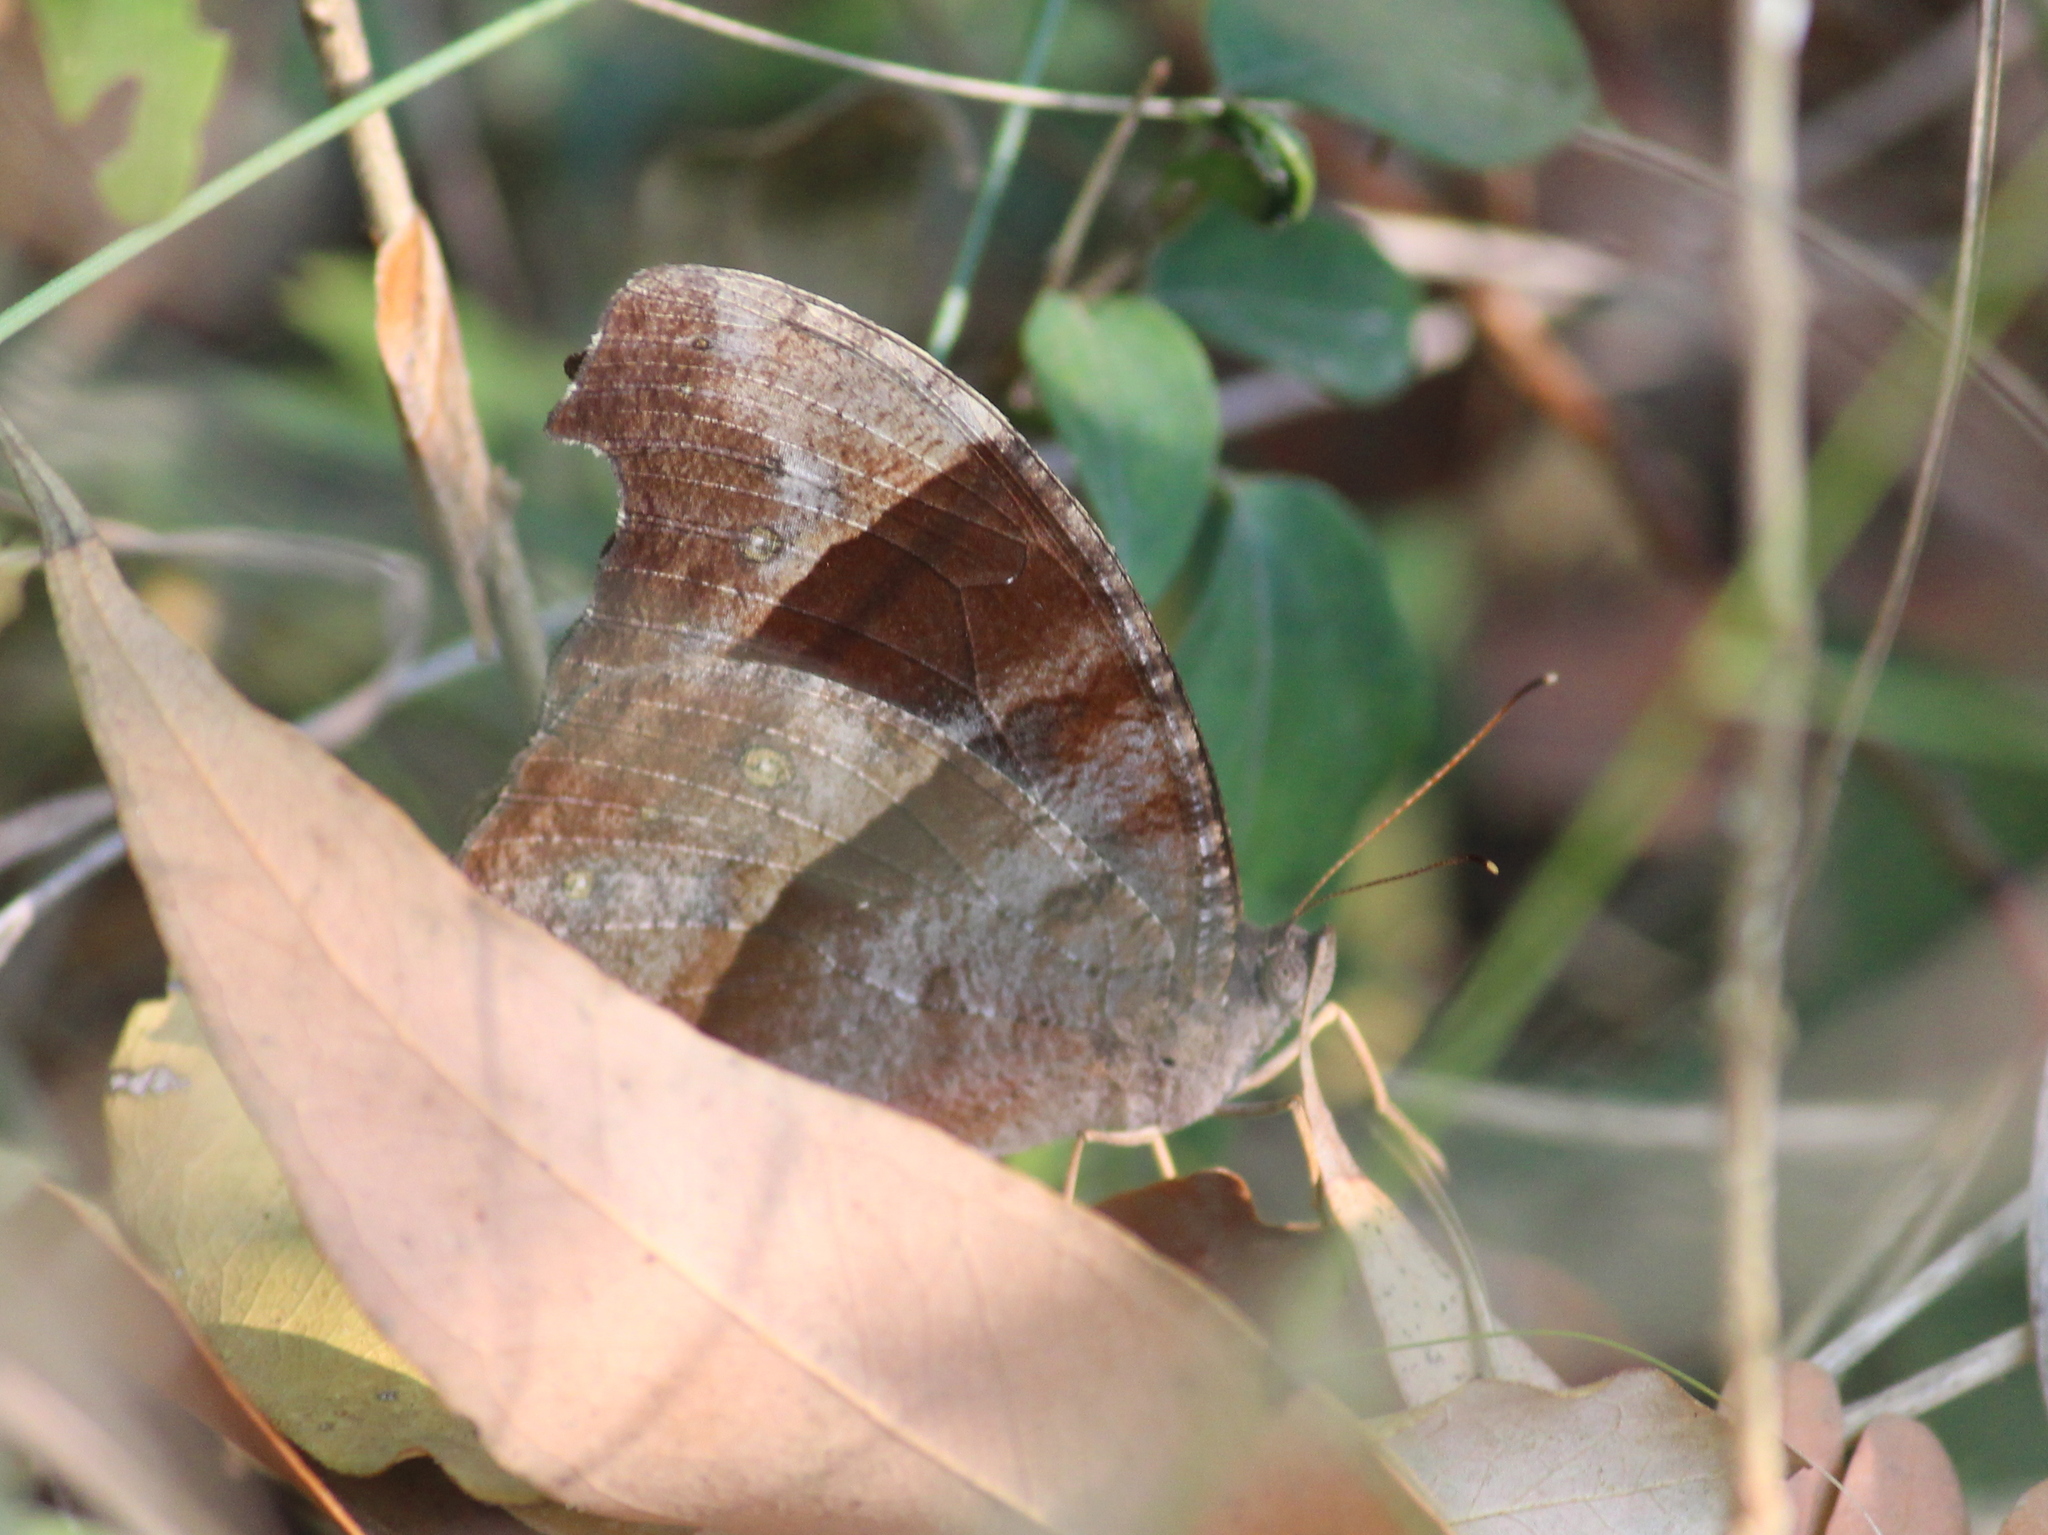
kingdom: Animalia
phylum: Arthropoda
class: Insecta
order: Lepidoptera
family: Nymphalidae
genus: Melanitis
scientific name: Melanitis leda
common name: Twilight brown
